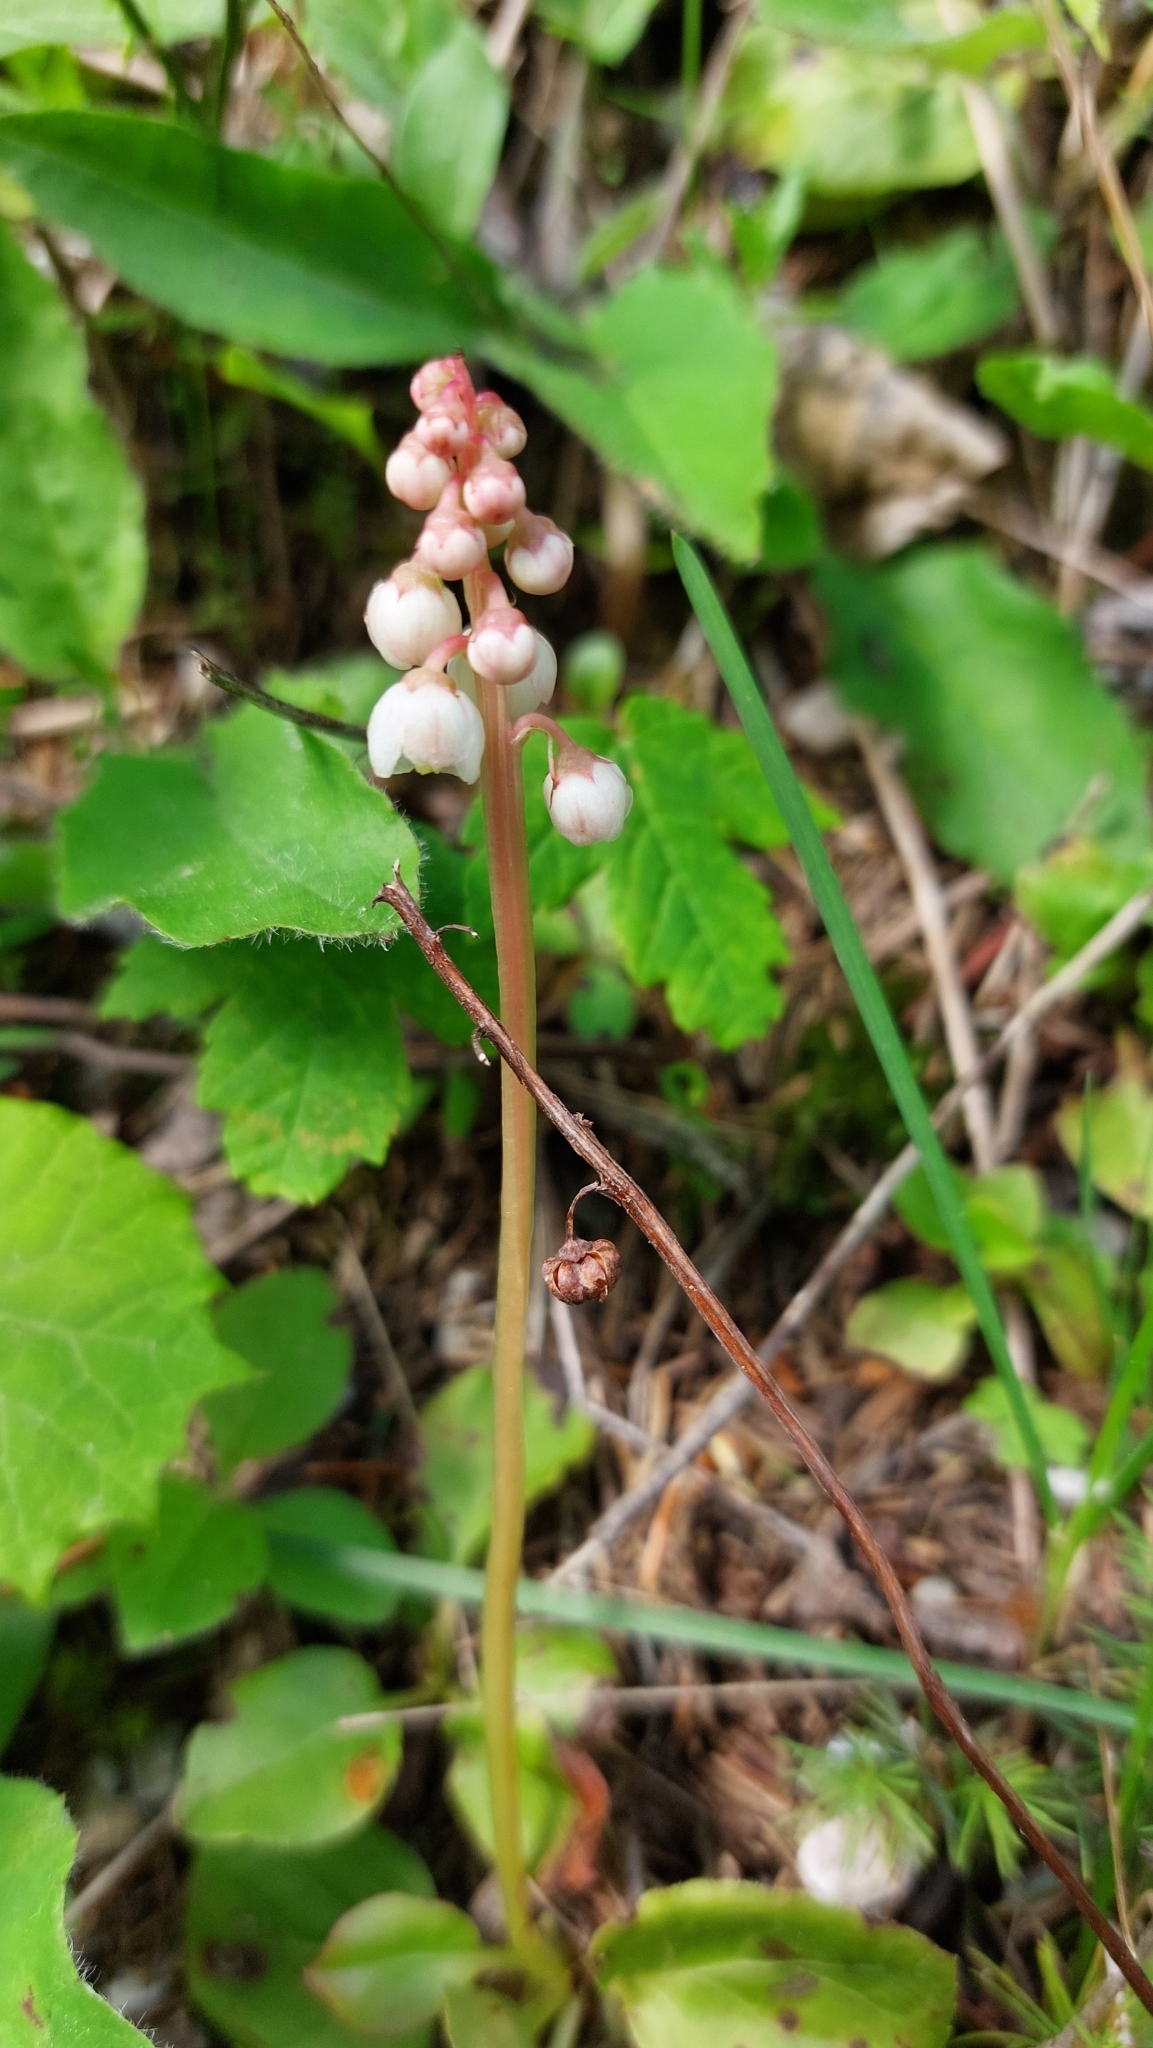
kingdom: Plantae
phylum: Tracheophyta
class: Magnoliopsida
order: Ericales
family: Ericaceae
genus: Pyrola
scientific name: Pyrola minor
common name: Common wintergreen
